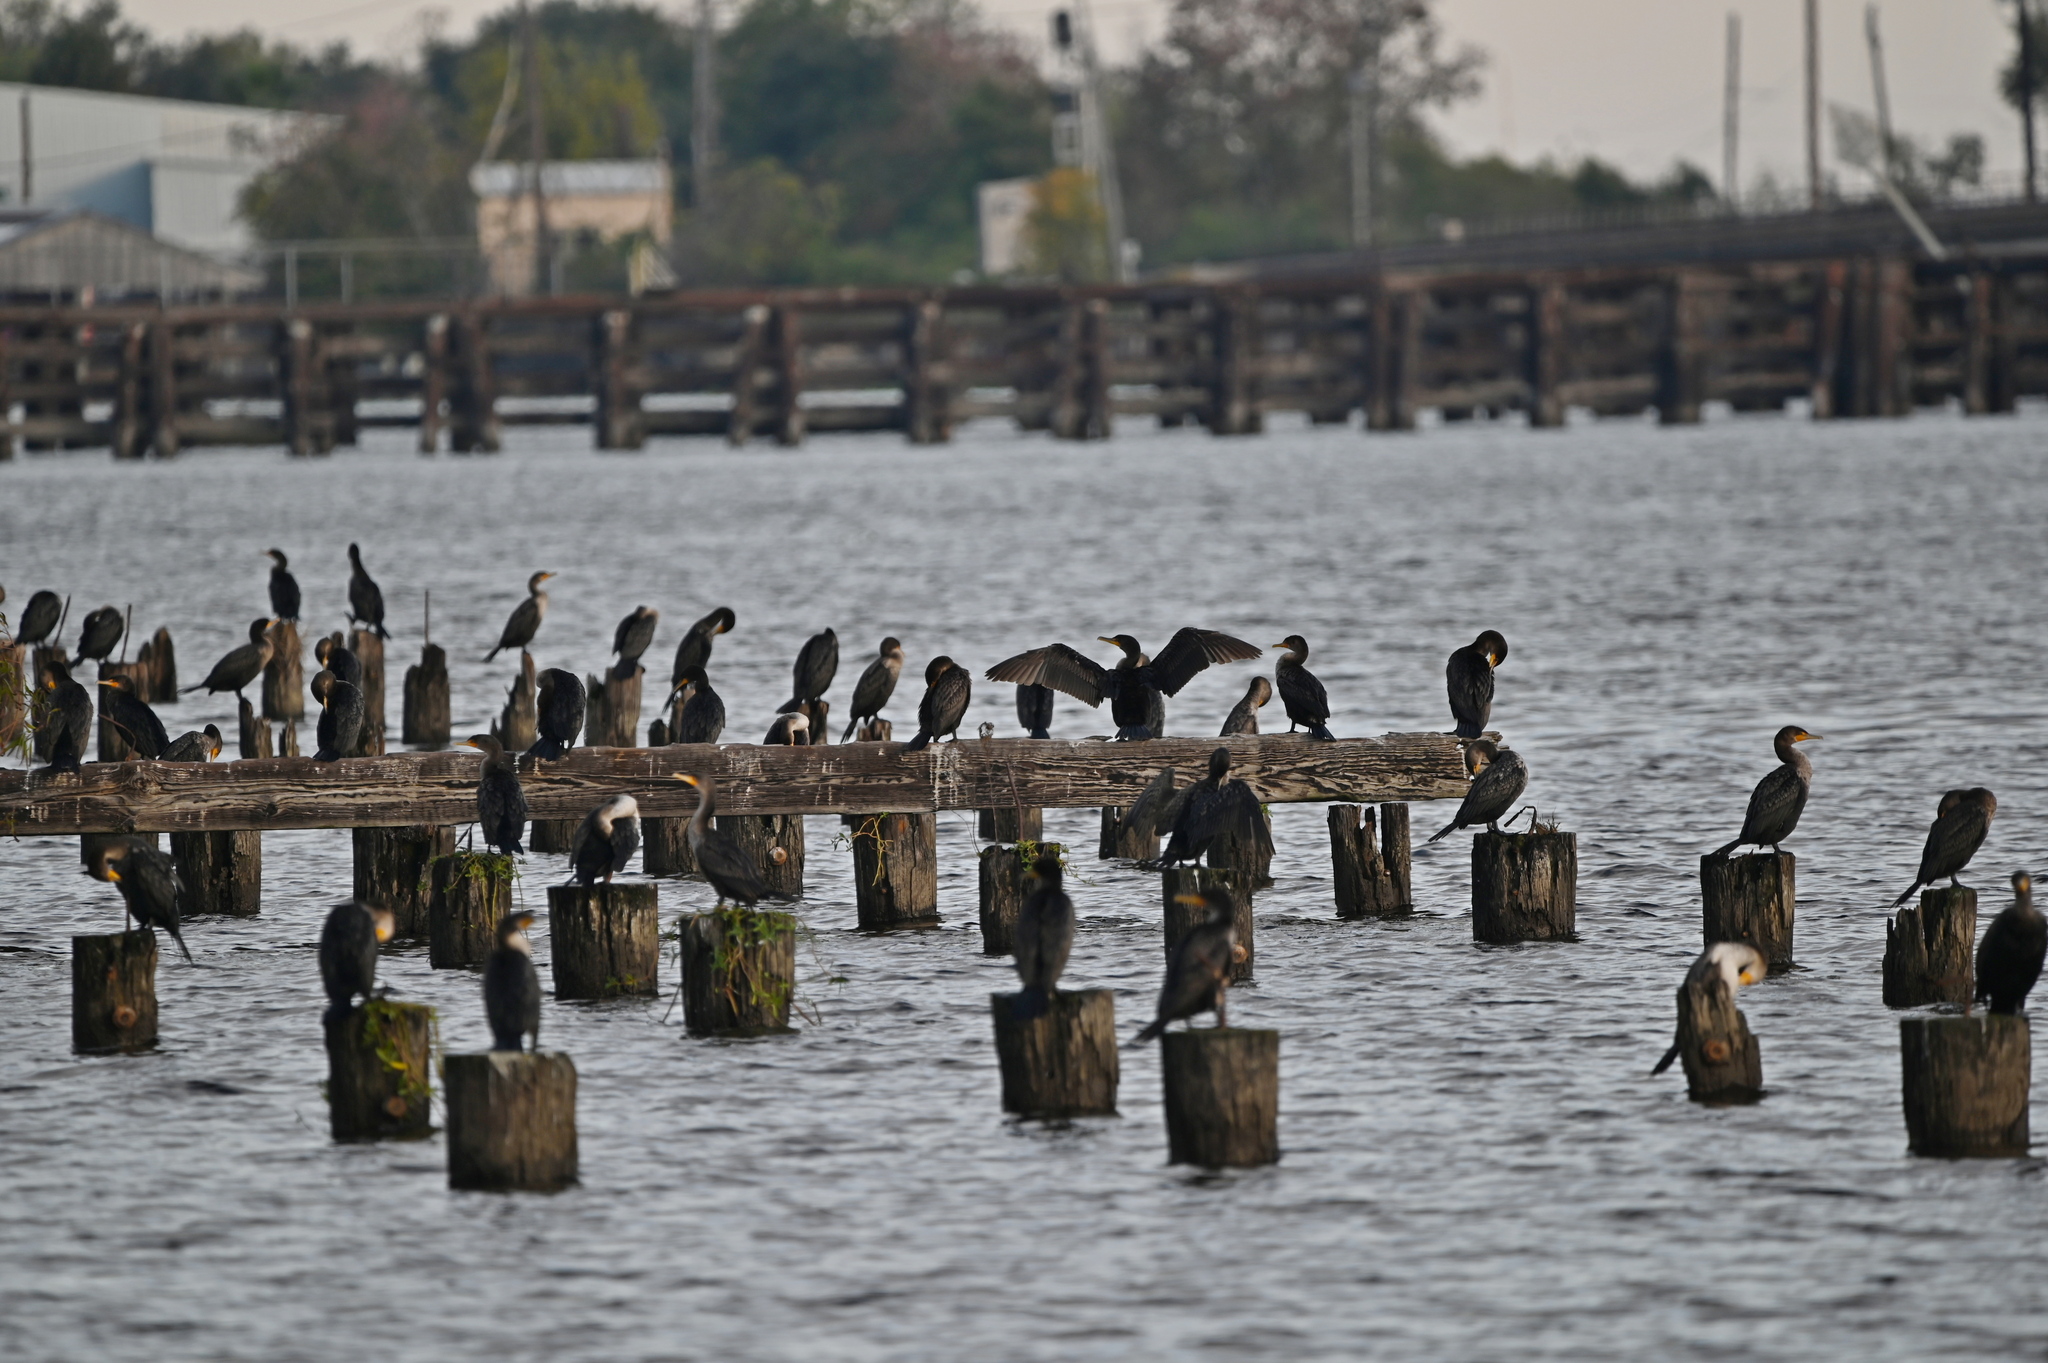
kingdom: Animalia
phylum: Chordata
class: Aves
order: Suliformes
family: Phalacrocoracidae
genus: Phalacrocorax
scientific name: Phalacrocorax auritus
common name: Double-crested cormorant
